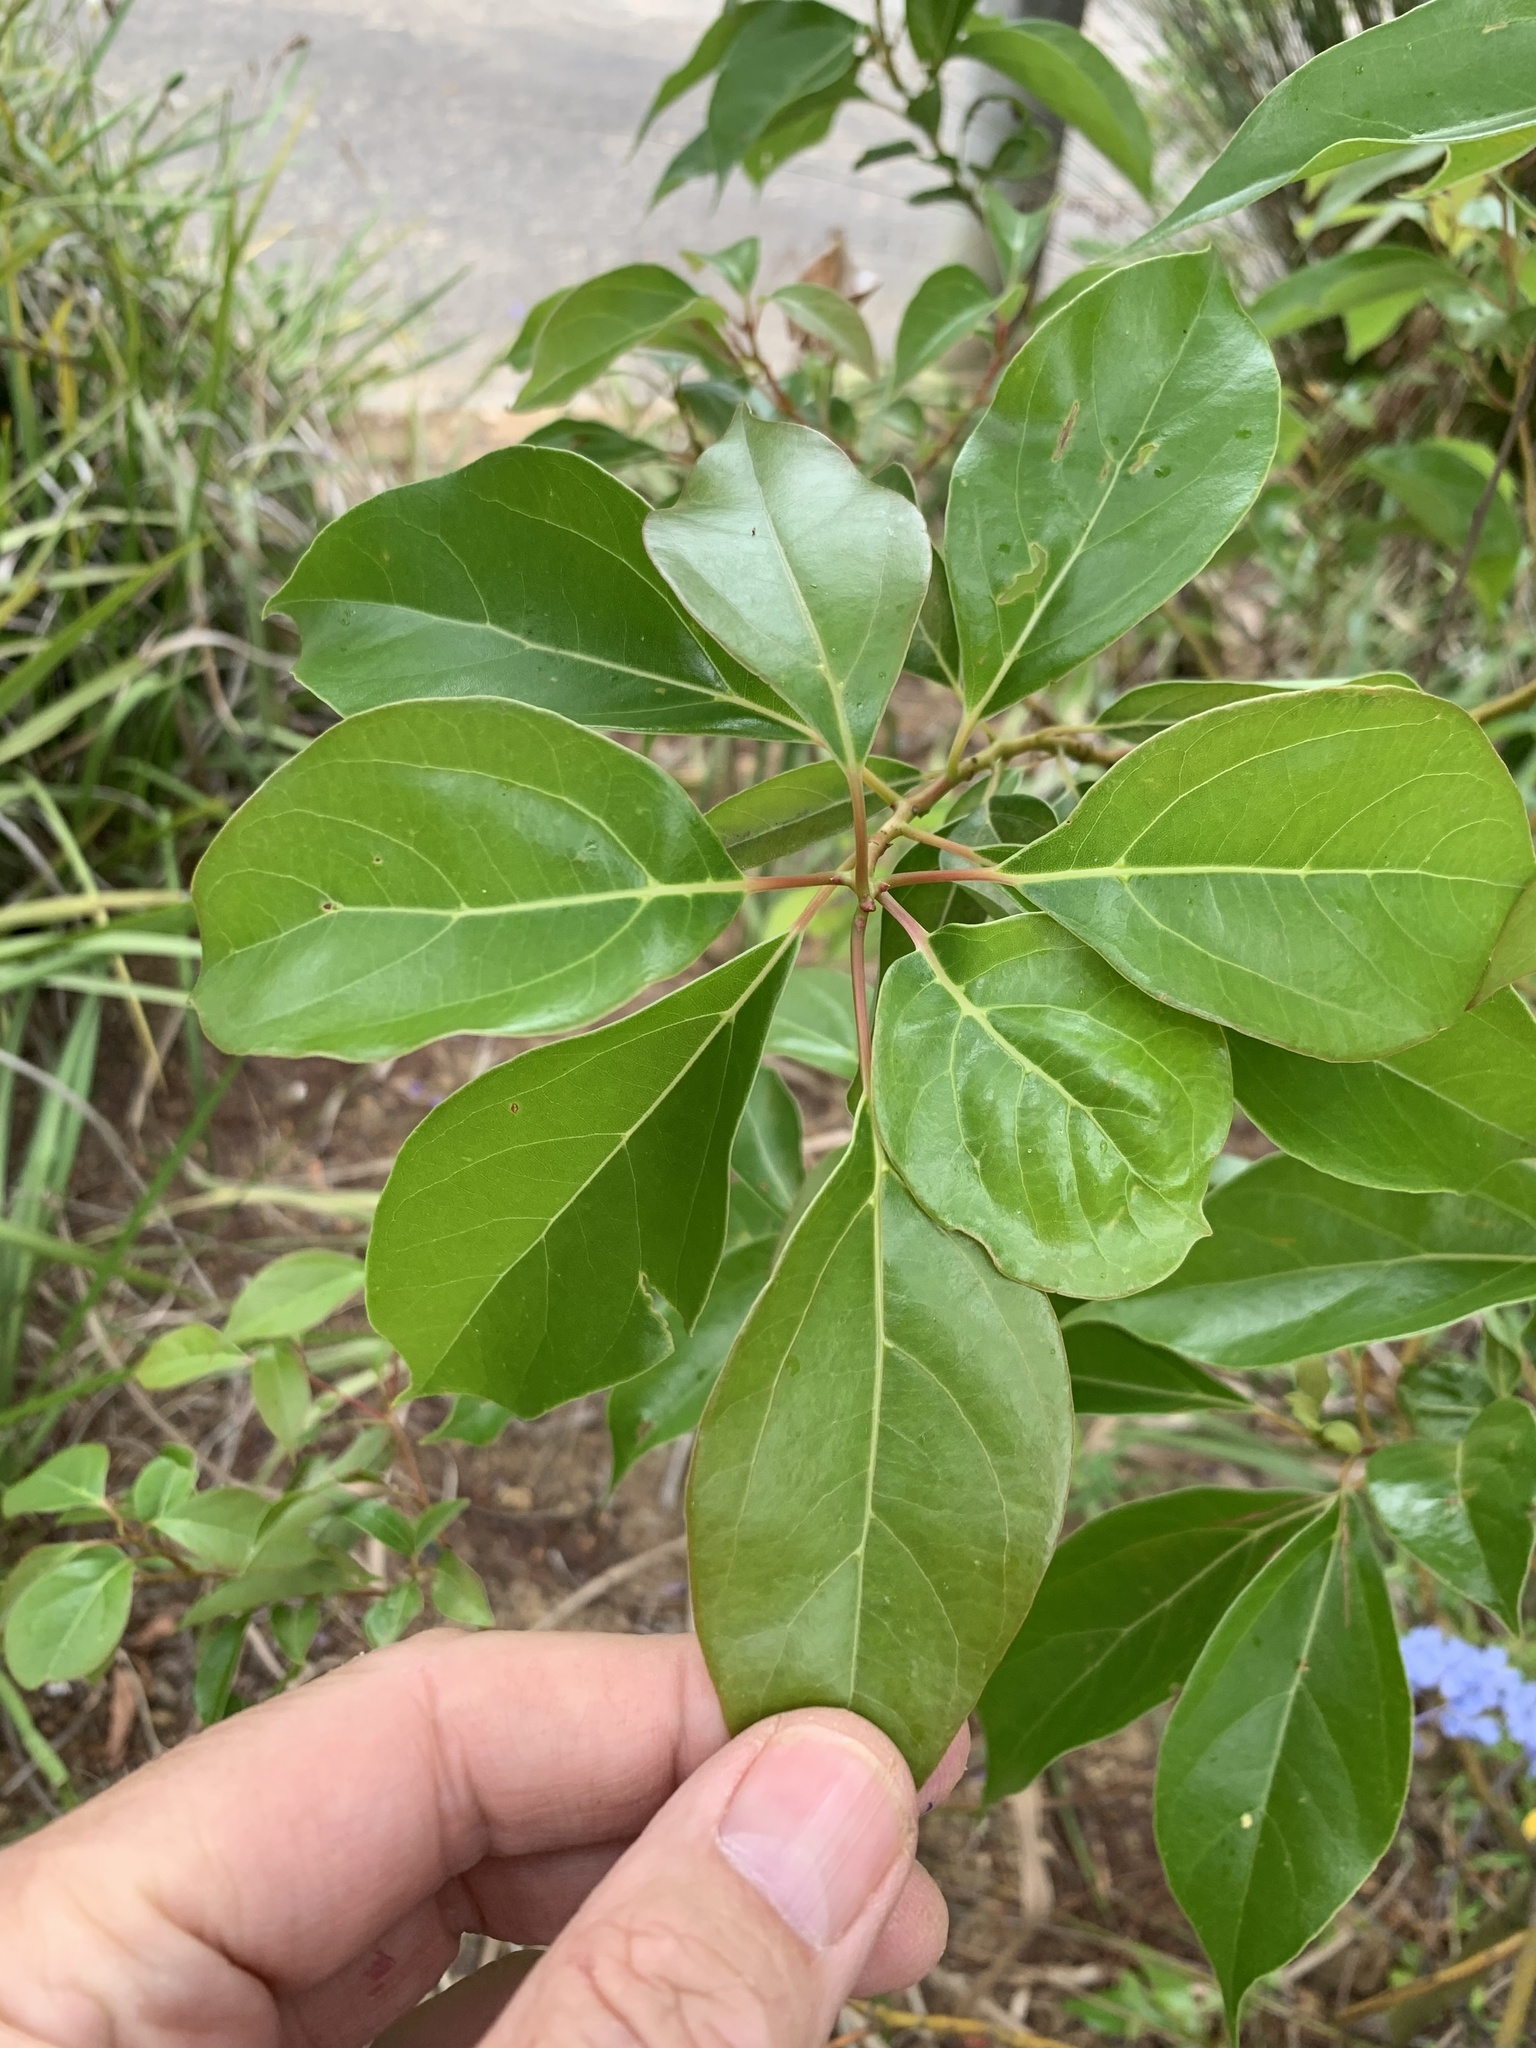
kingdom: Plantae
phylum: Tracheophyta
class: Magnoliopsida
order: Laurales
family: Lauraceae
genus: Cinnamomum
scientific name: Cinnamomum camphora
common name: Camphortree
